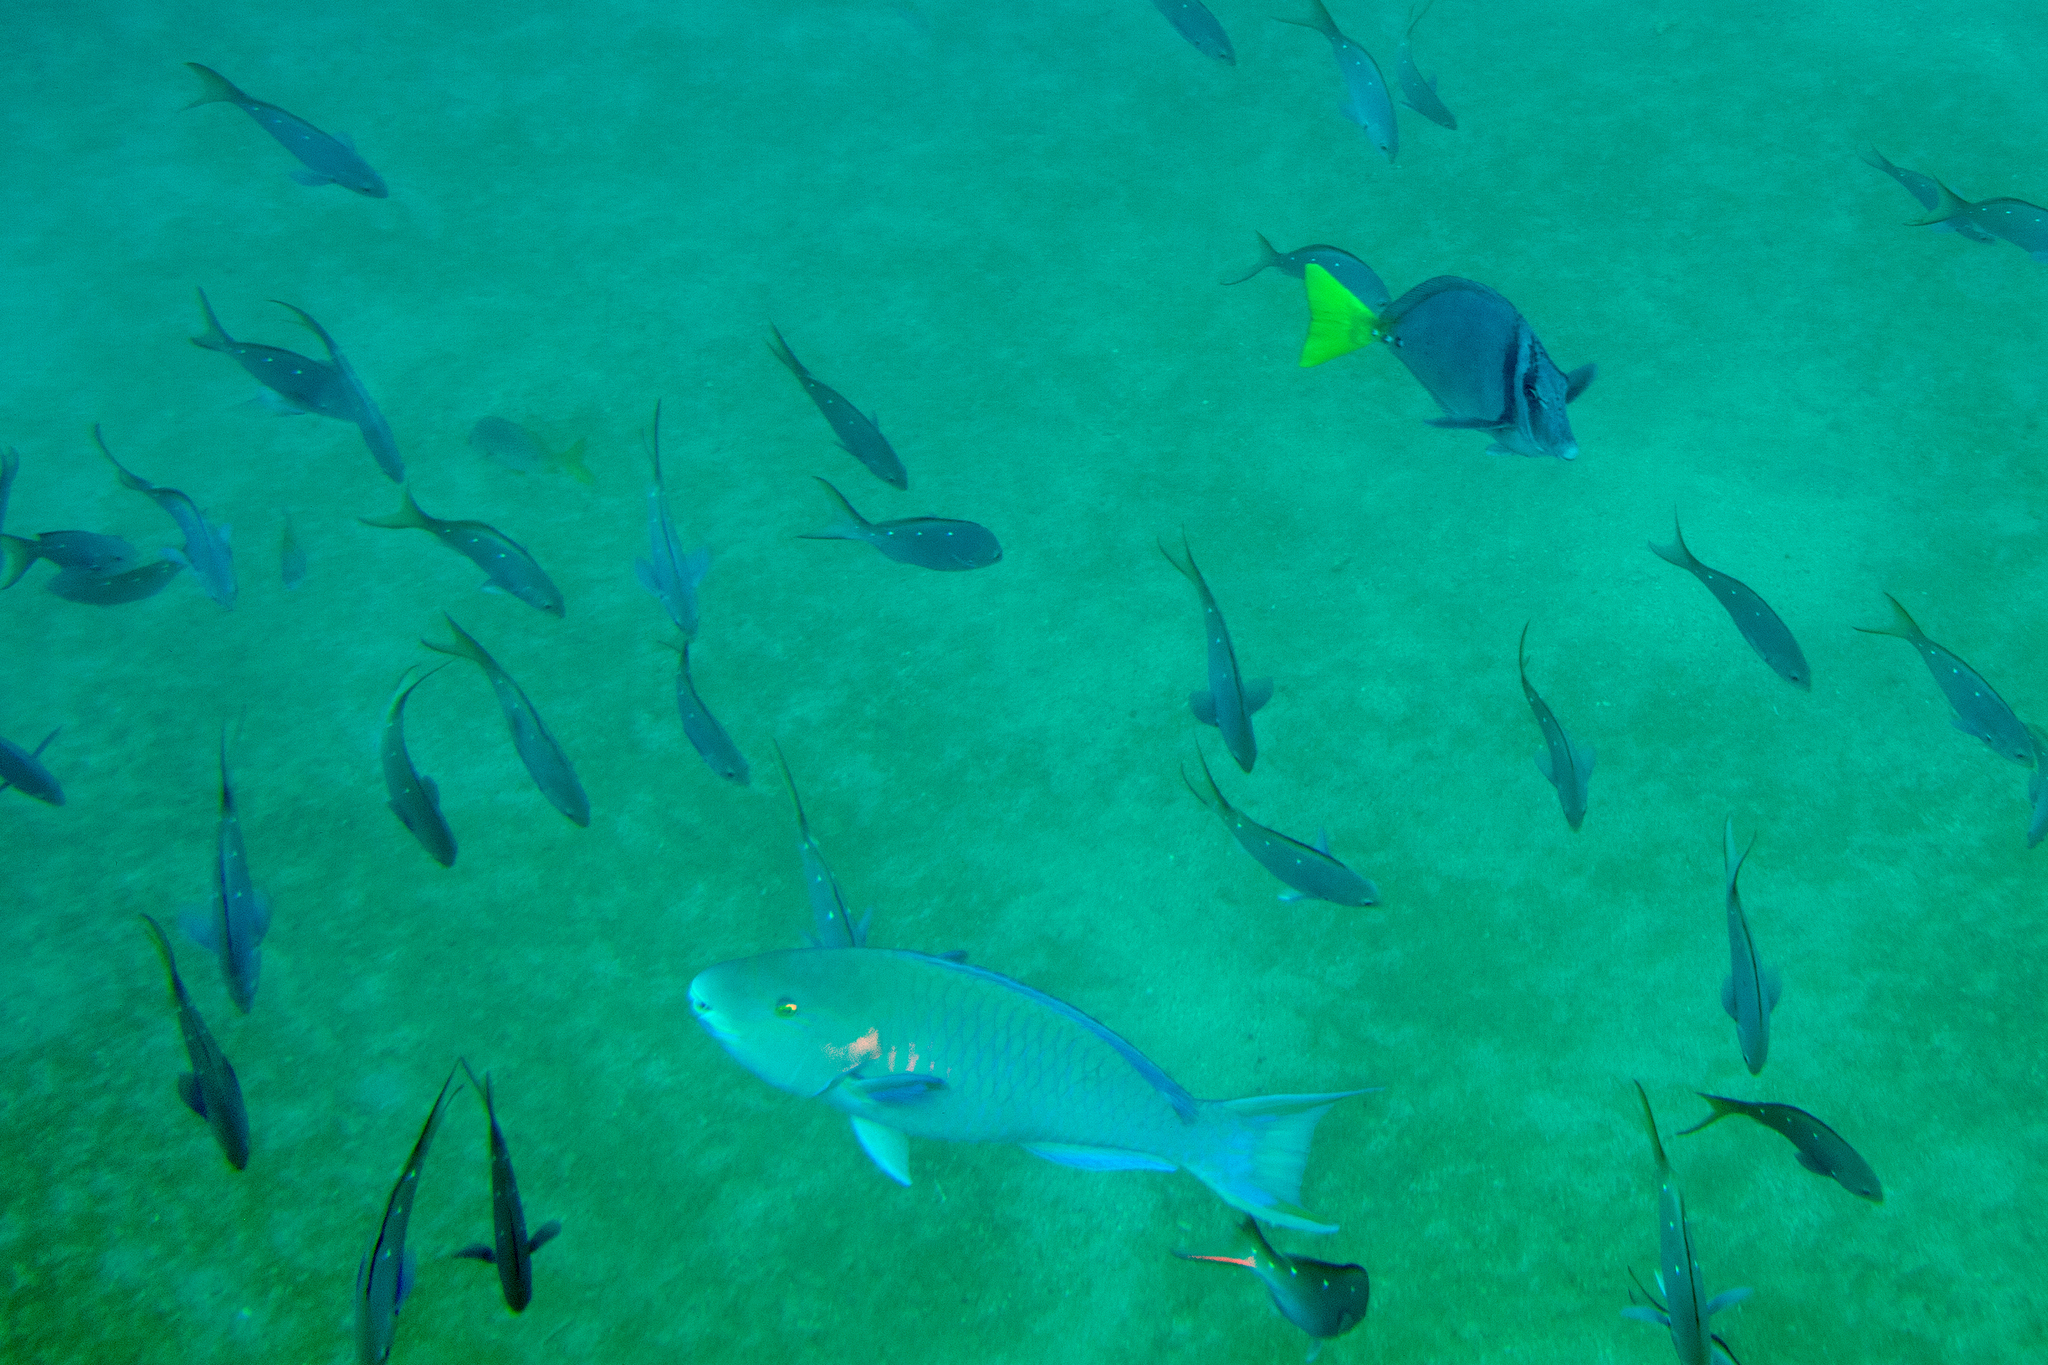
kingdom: Animalia
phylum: Chordata
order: Perciformes
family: Acanthuridae
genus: Prionurus
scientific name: Prionurus laticlavius
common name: Razor surgeonfish
